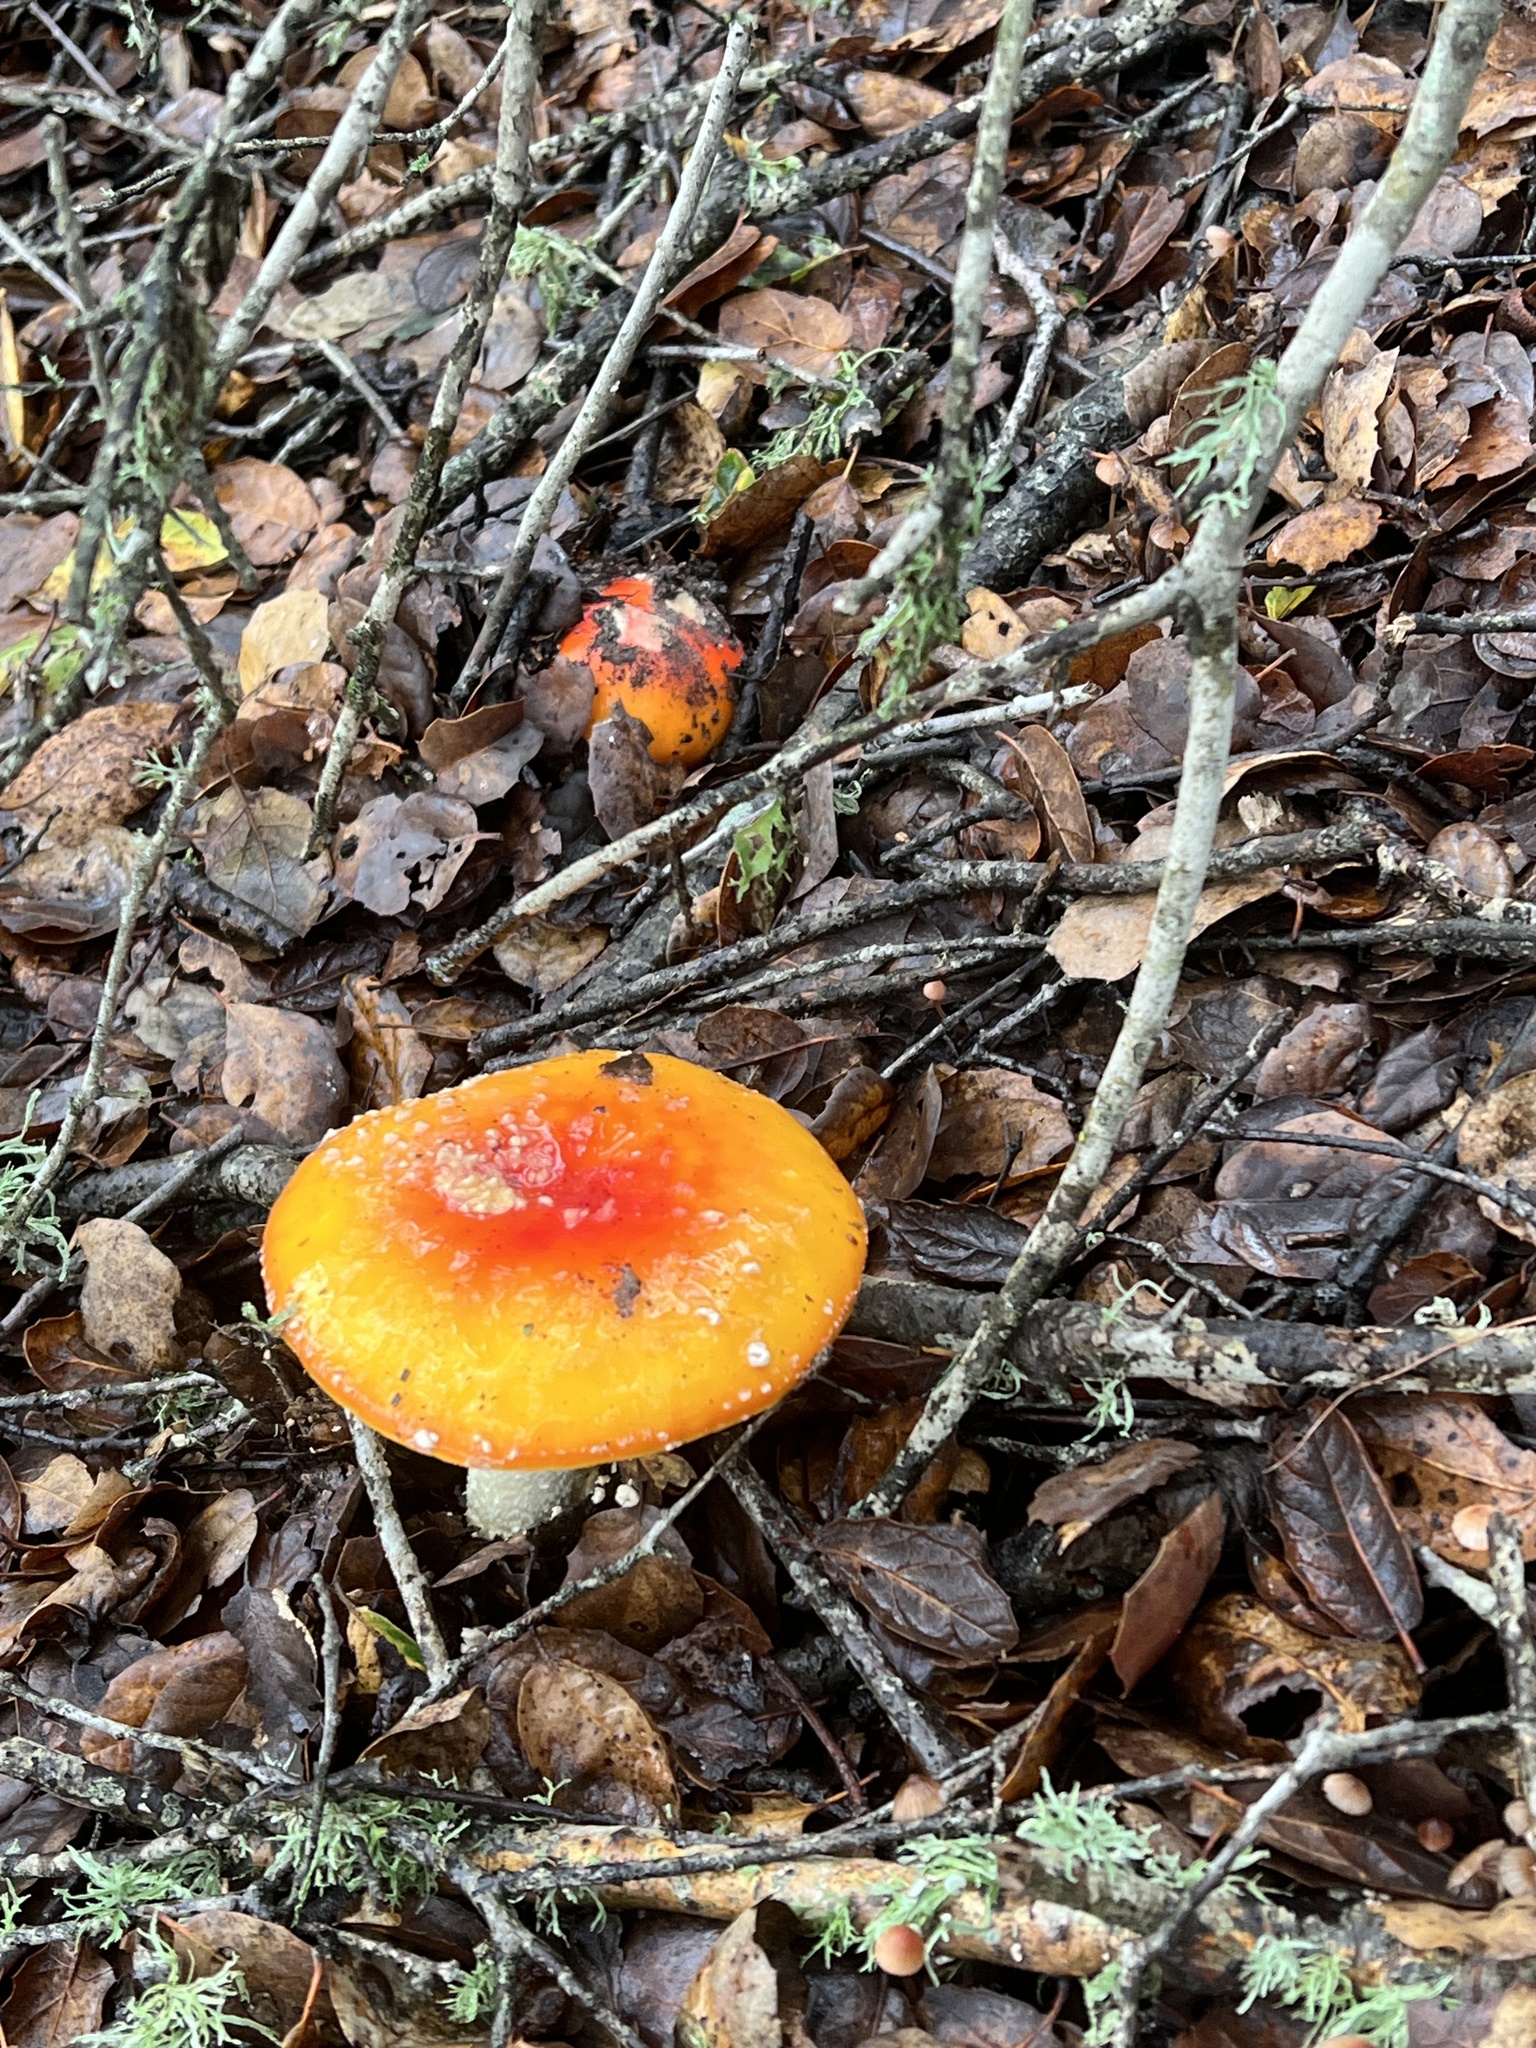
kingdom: Fungi
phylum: Basidiomycota
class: Agaricomycetes
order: Agaricales
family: Amanitaceae
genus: Amanita
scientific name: Amanita muscaria
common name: Fly agaric
